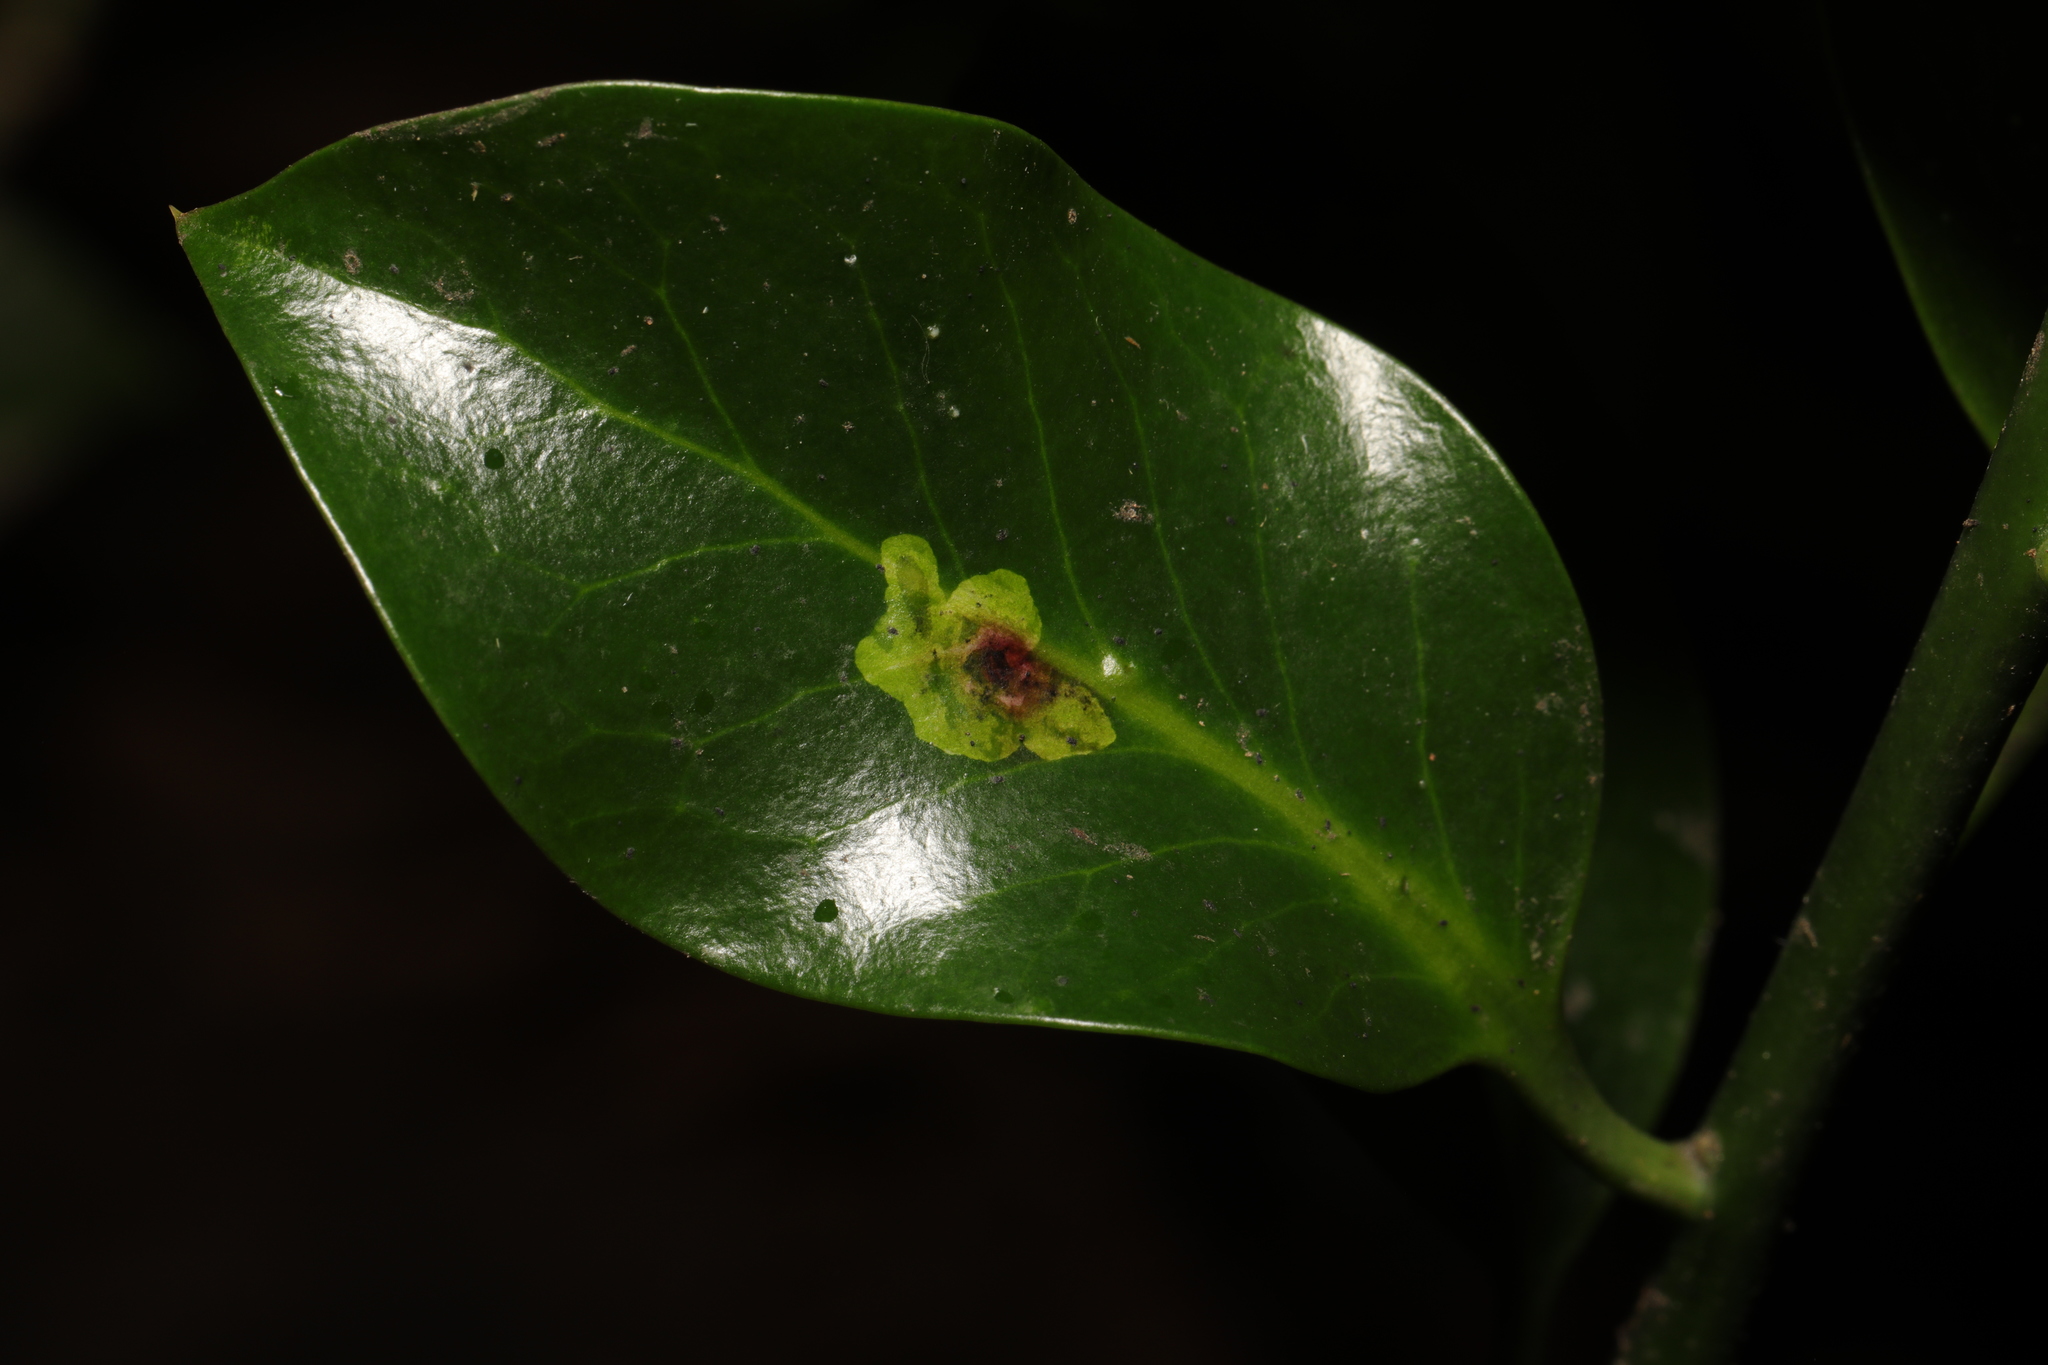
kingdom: Plantae
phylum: Tracheophyta
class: Magnoliopsida
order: Aquifoliales
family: Aquifoliaceae
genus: Ilex
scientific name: Ilex aquifolium
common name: English holly
